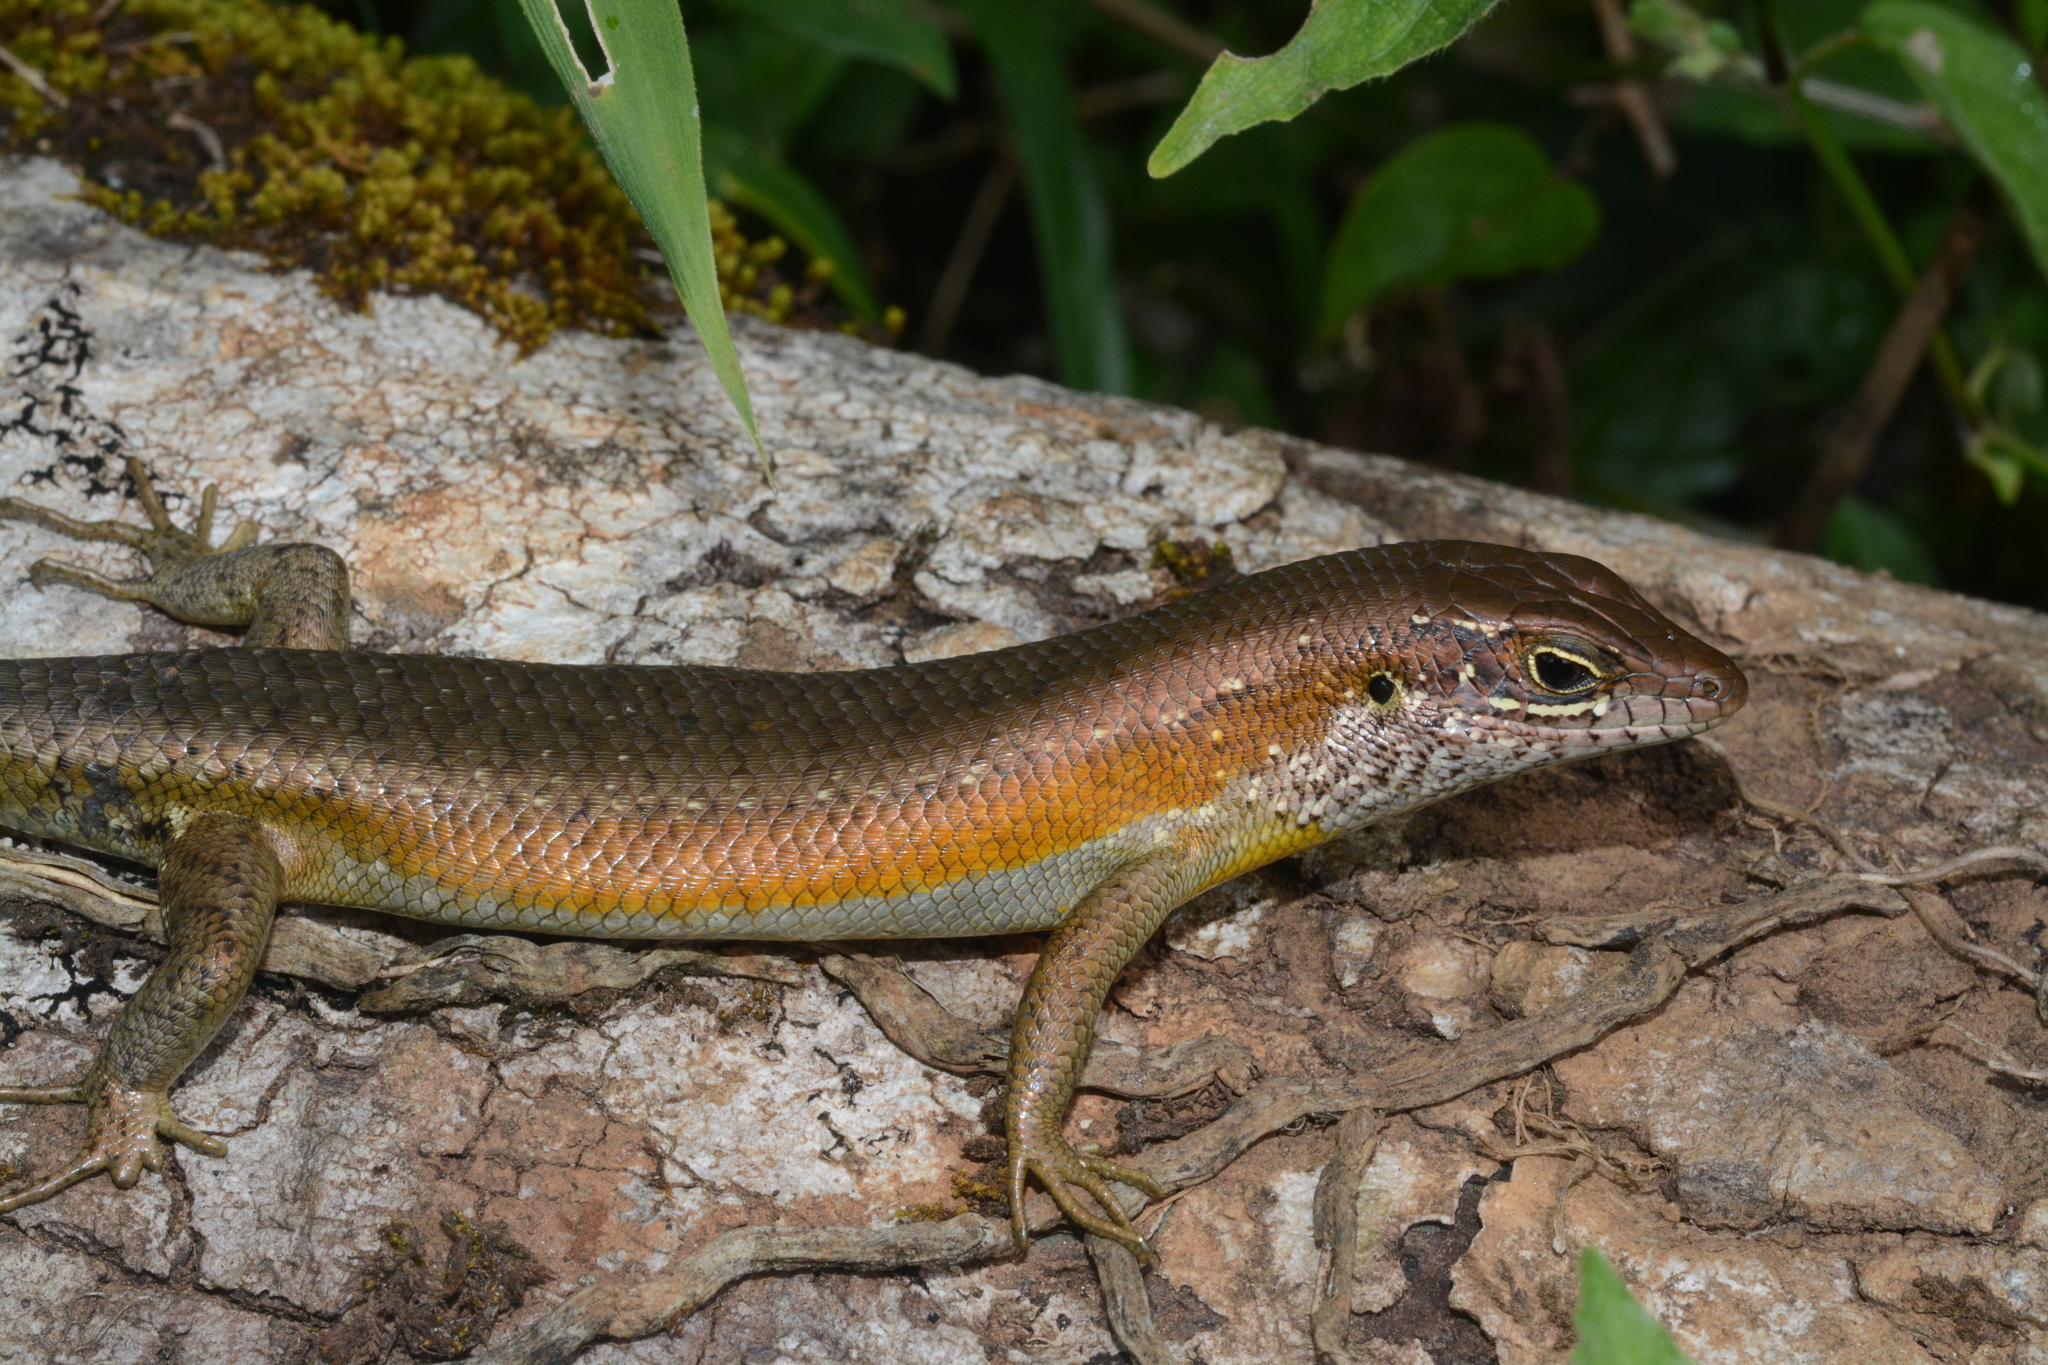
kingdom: Animalia
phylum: Chordata
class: Squamata
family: Scincidae
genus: Trachylepis
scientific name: Trachylepis maculilabris
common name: Speckle-lipped mabuya
